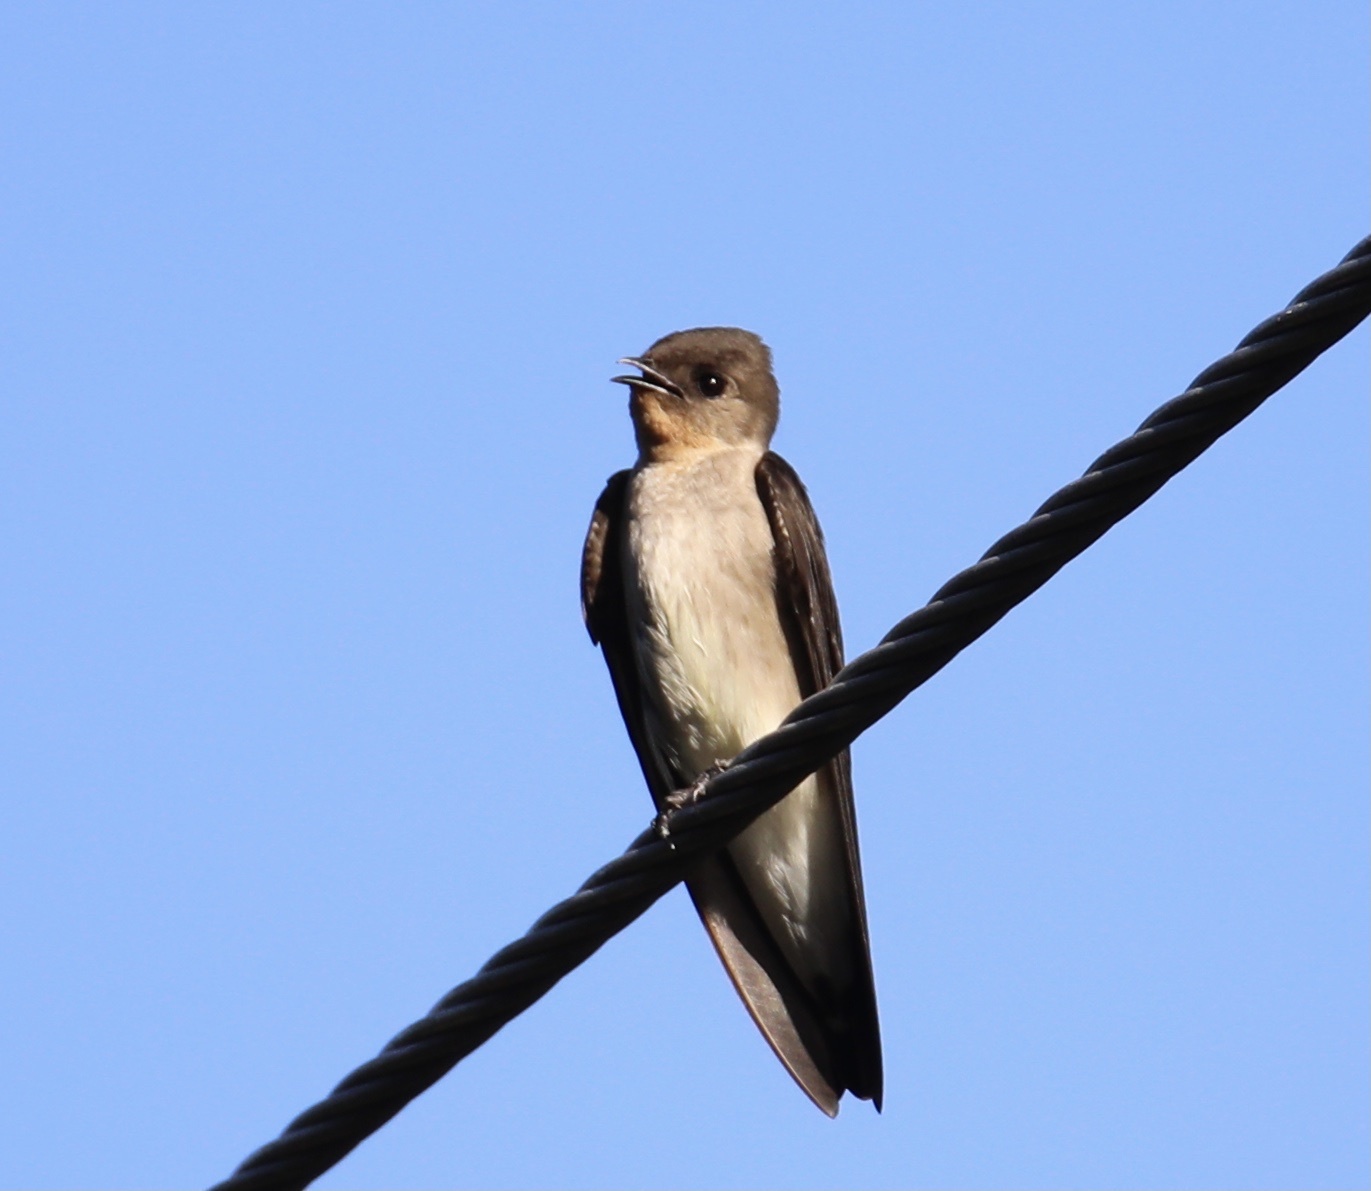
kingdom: Animalia
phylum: Chordata
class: Aves
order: Passeriformes
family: Hirundinidae
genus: Stelgidopteryx
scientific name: Stelgidopteryx ruficollis
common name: Southern rough-winged swallow
